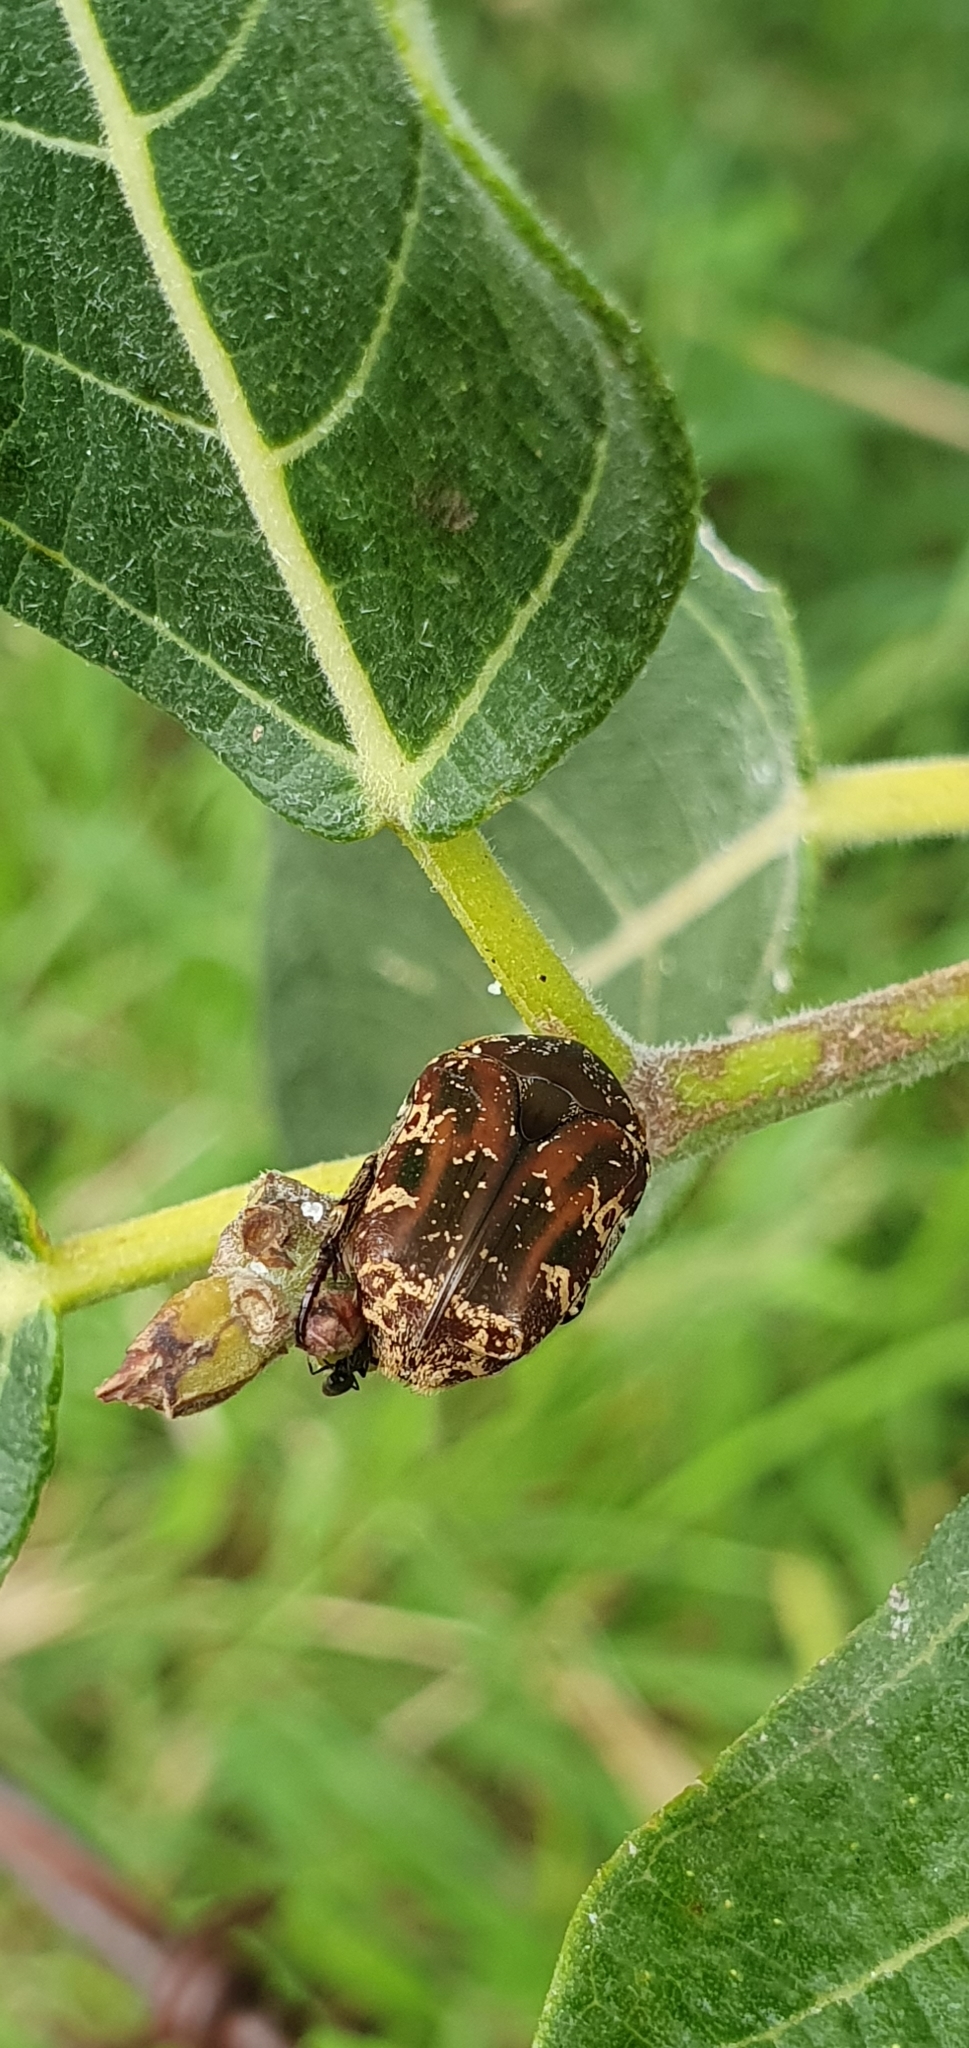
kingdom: Animalia
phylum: Arthropoda
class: Insecta
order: Coleoptera
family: Scarabaeidae
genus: Protaetia
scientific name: Protaetia fusca
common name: Mango flower beetle
